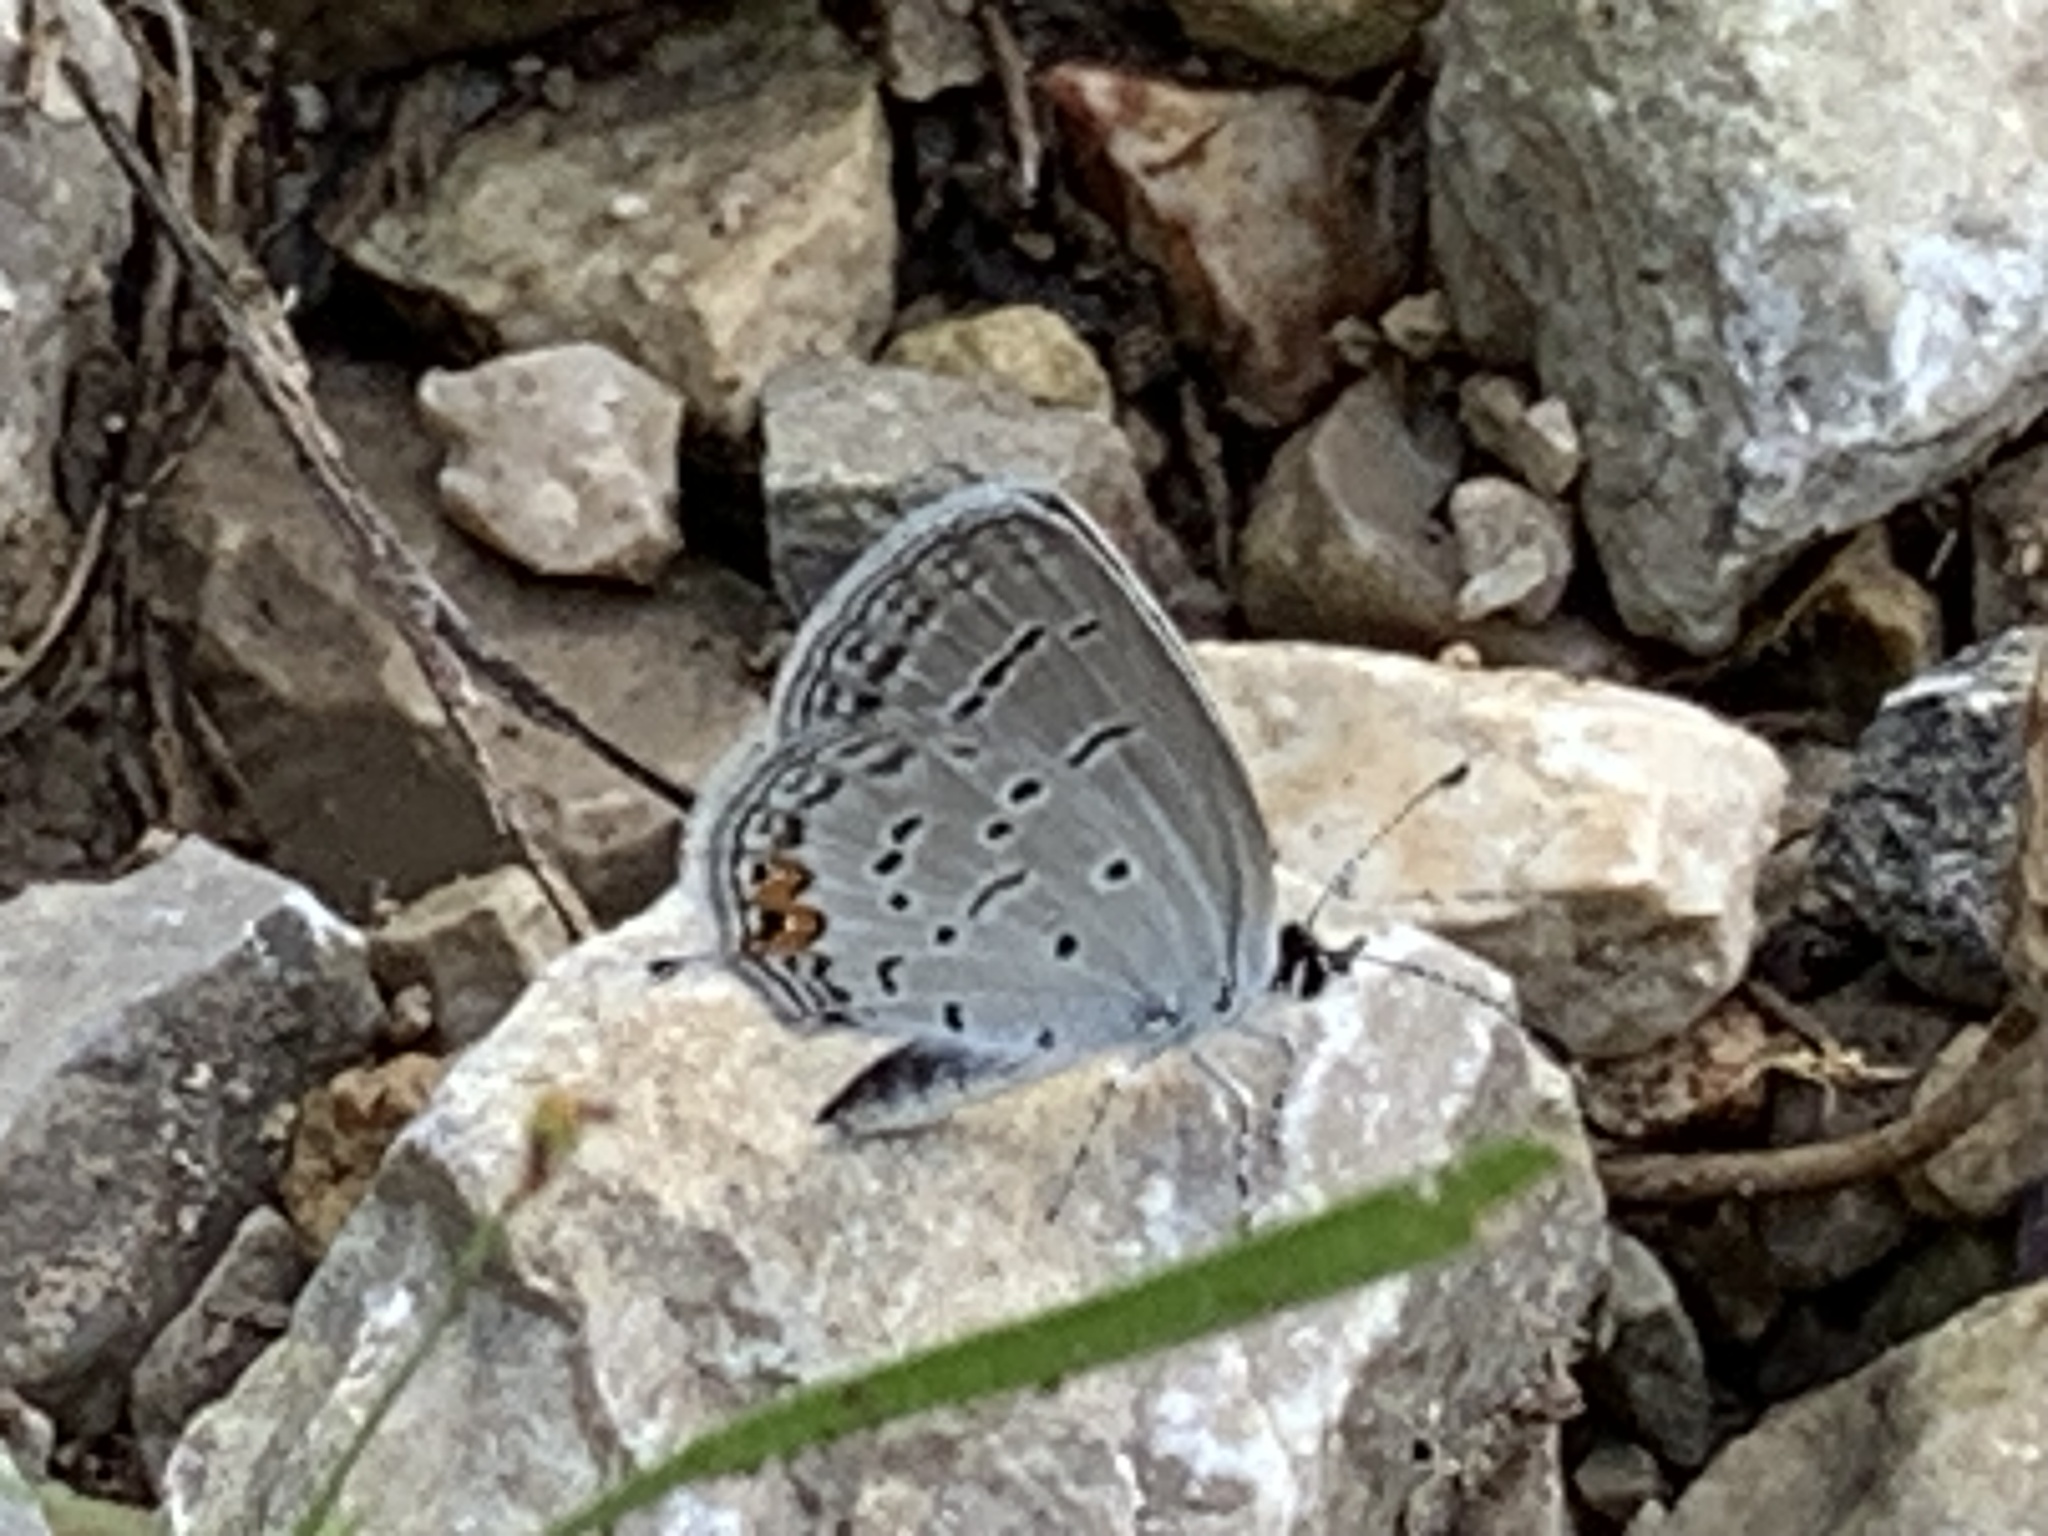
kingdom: Animalia
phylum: Arthropoda
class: Insecta
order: Lepidoptera
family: Lycaenidae
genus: Elkalyce
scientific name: Elkalyce comyntas
